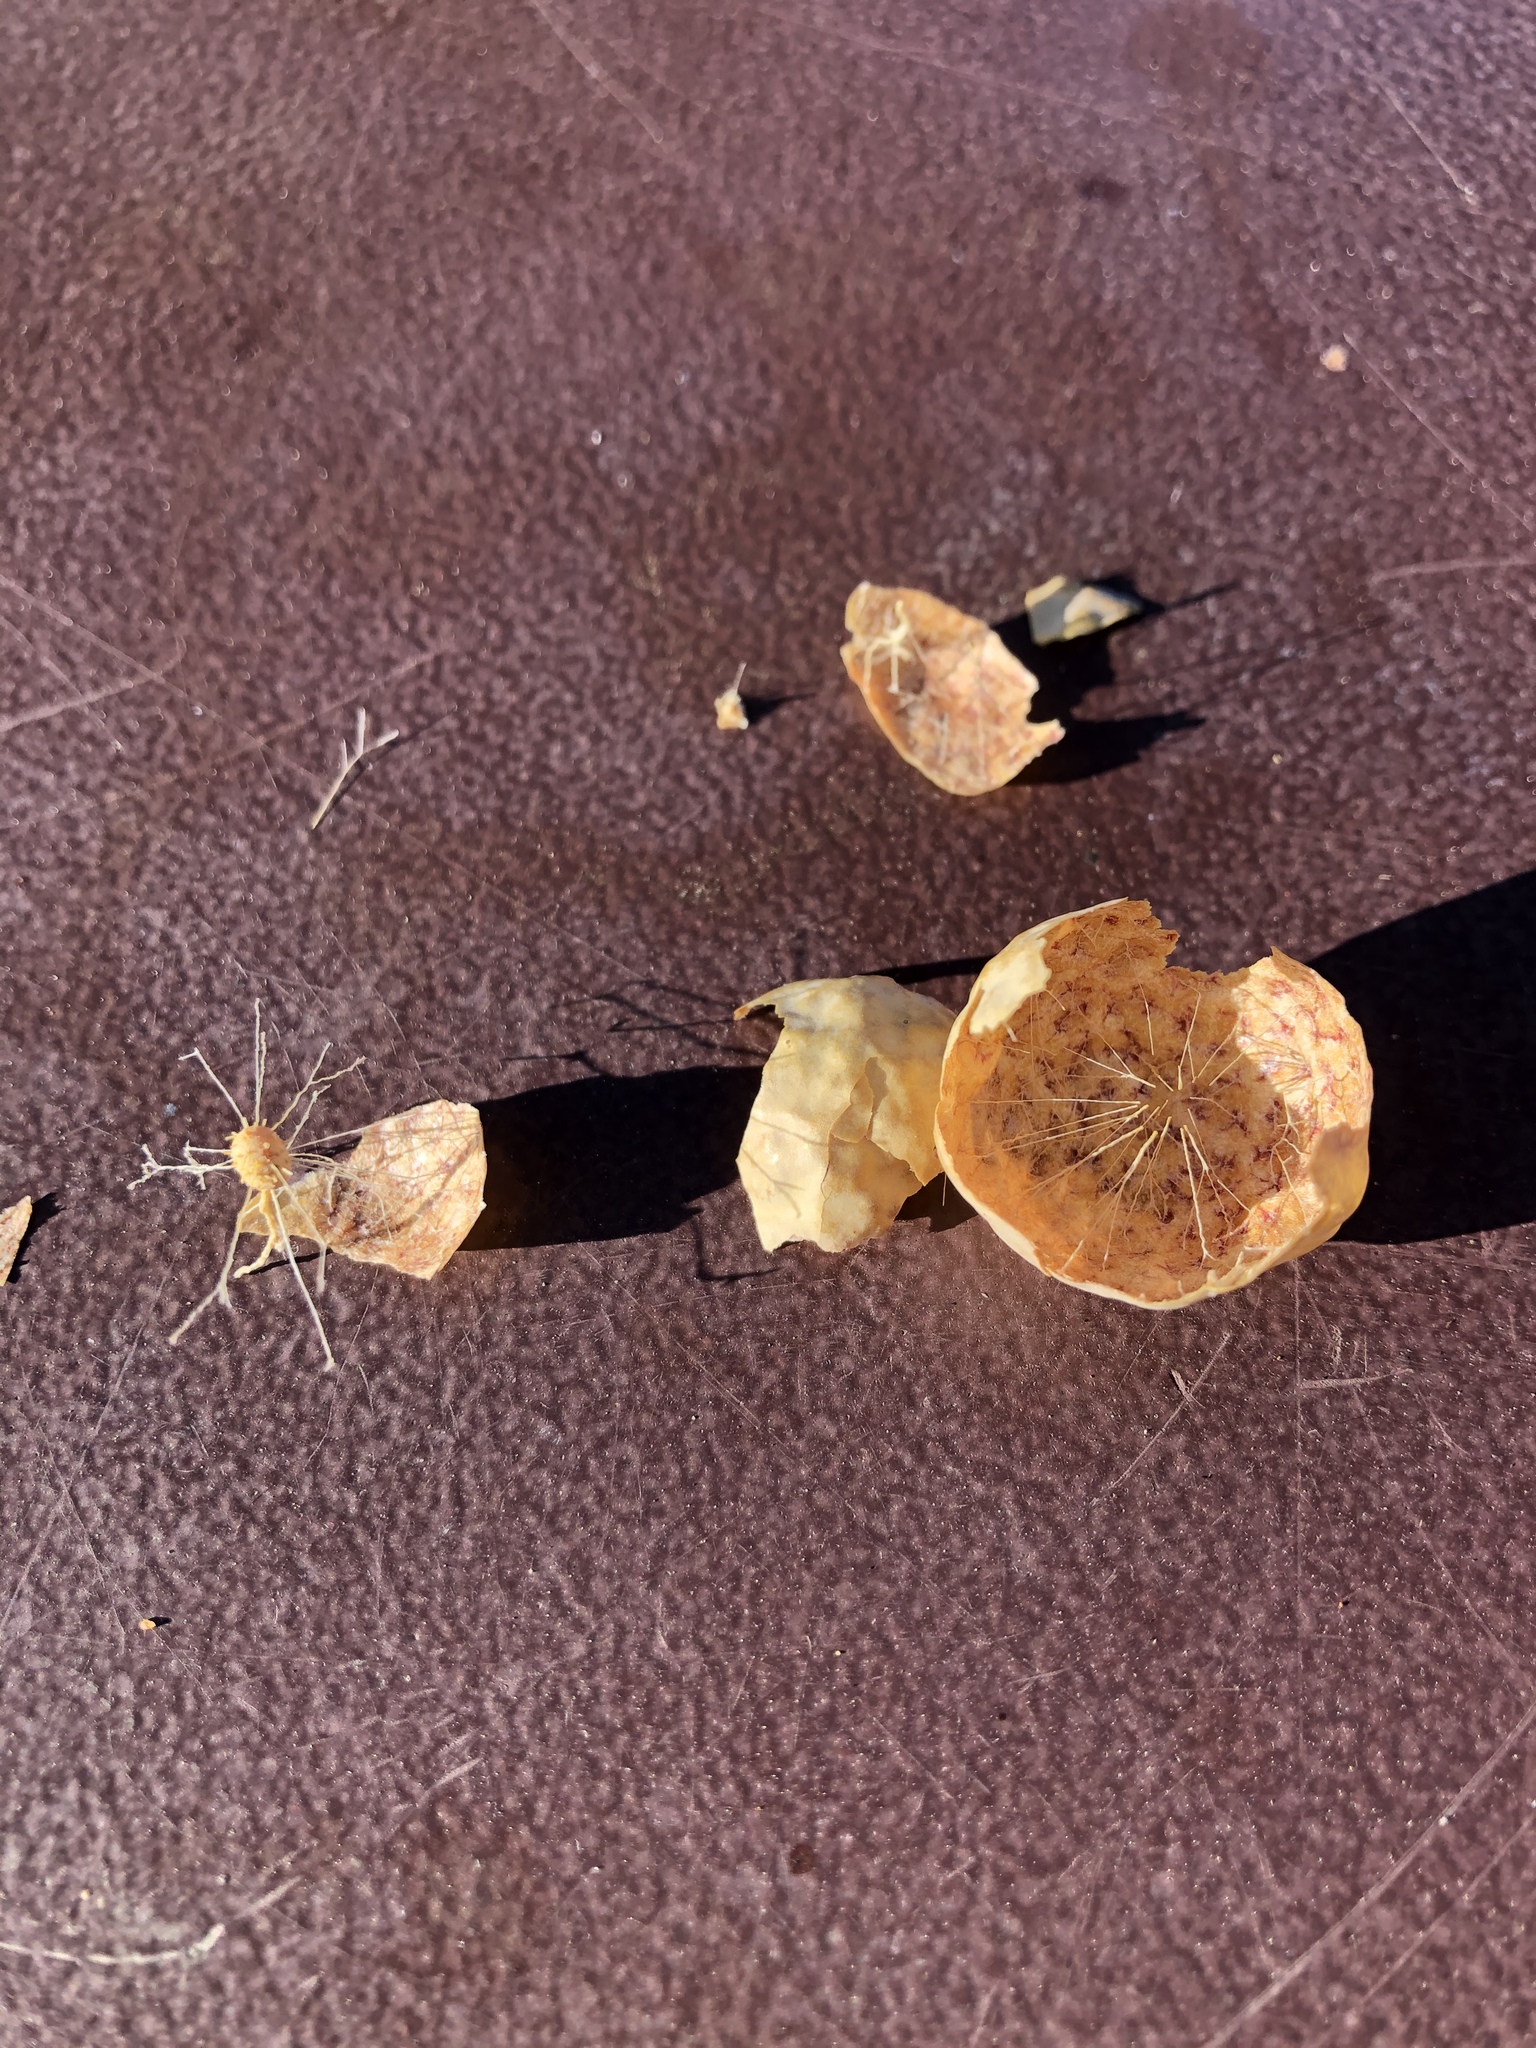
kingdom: Animalia
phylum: Arthropoda
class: Insecta
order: Hymenoptera
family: Cynipidae
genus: Andricus
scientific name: Andricus
